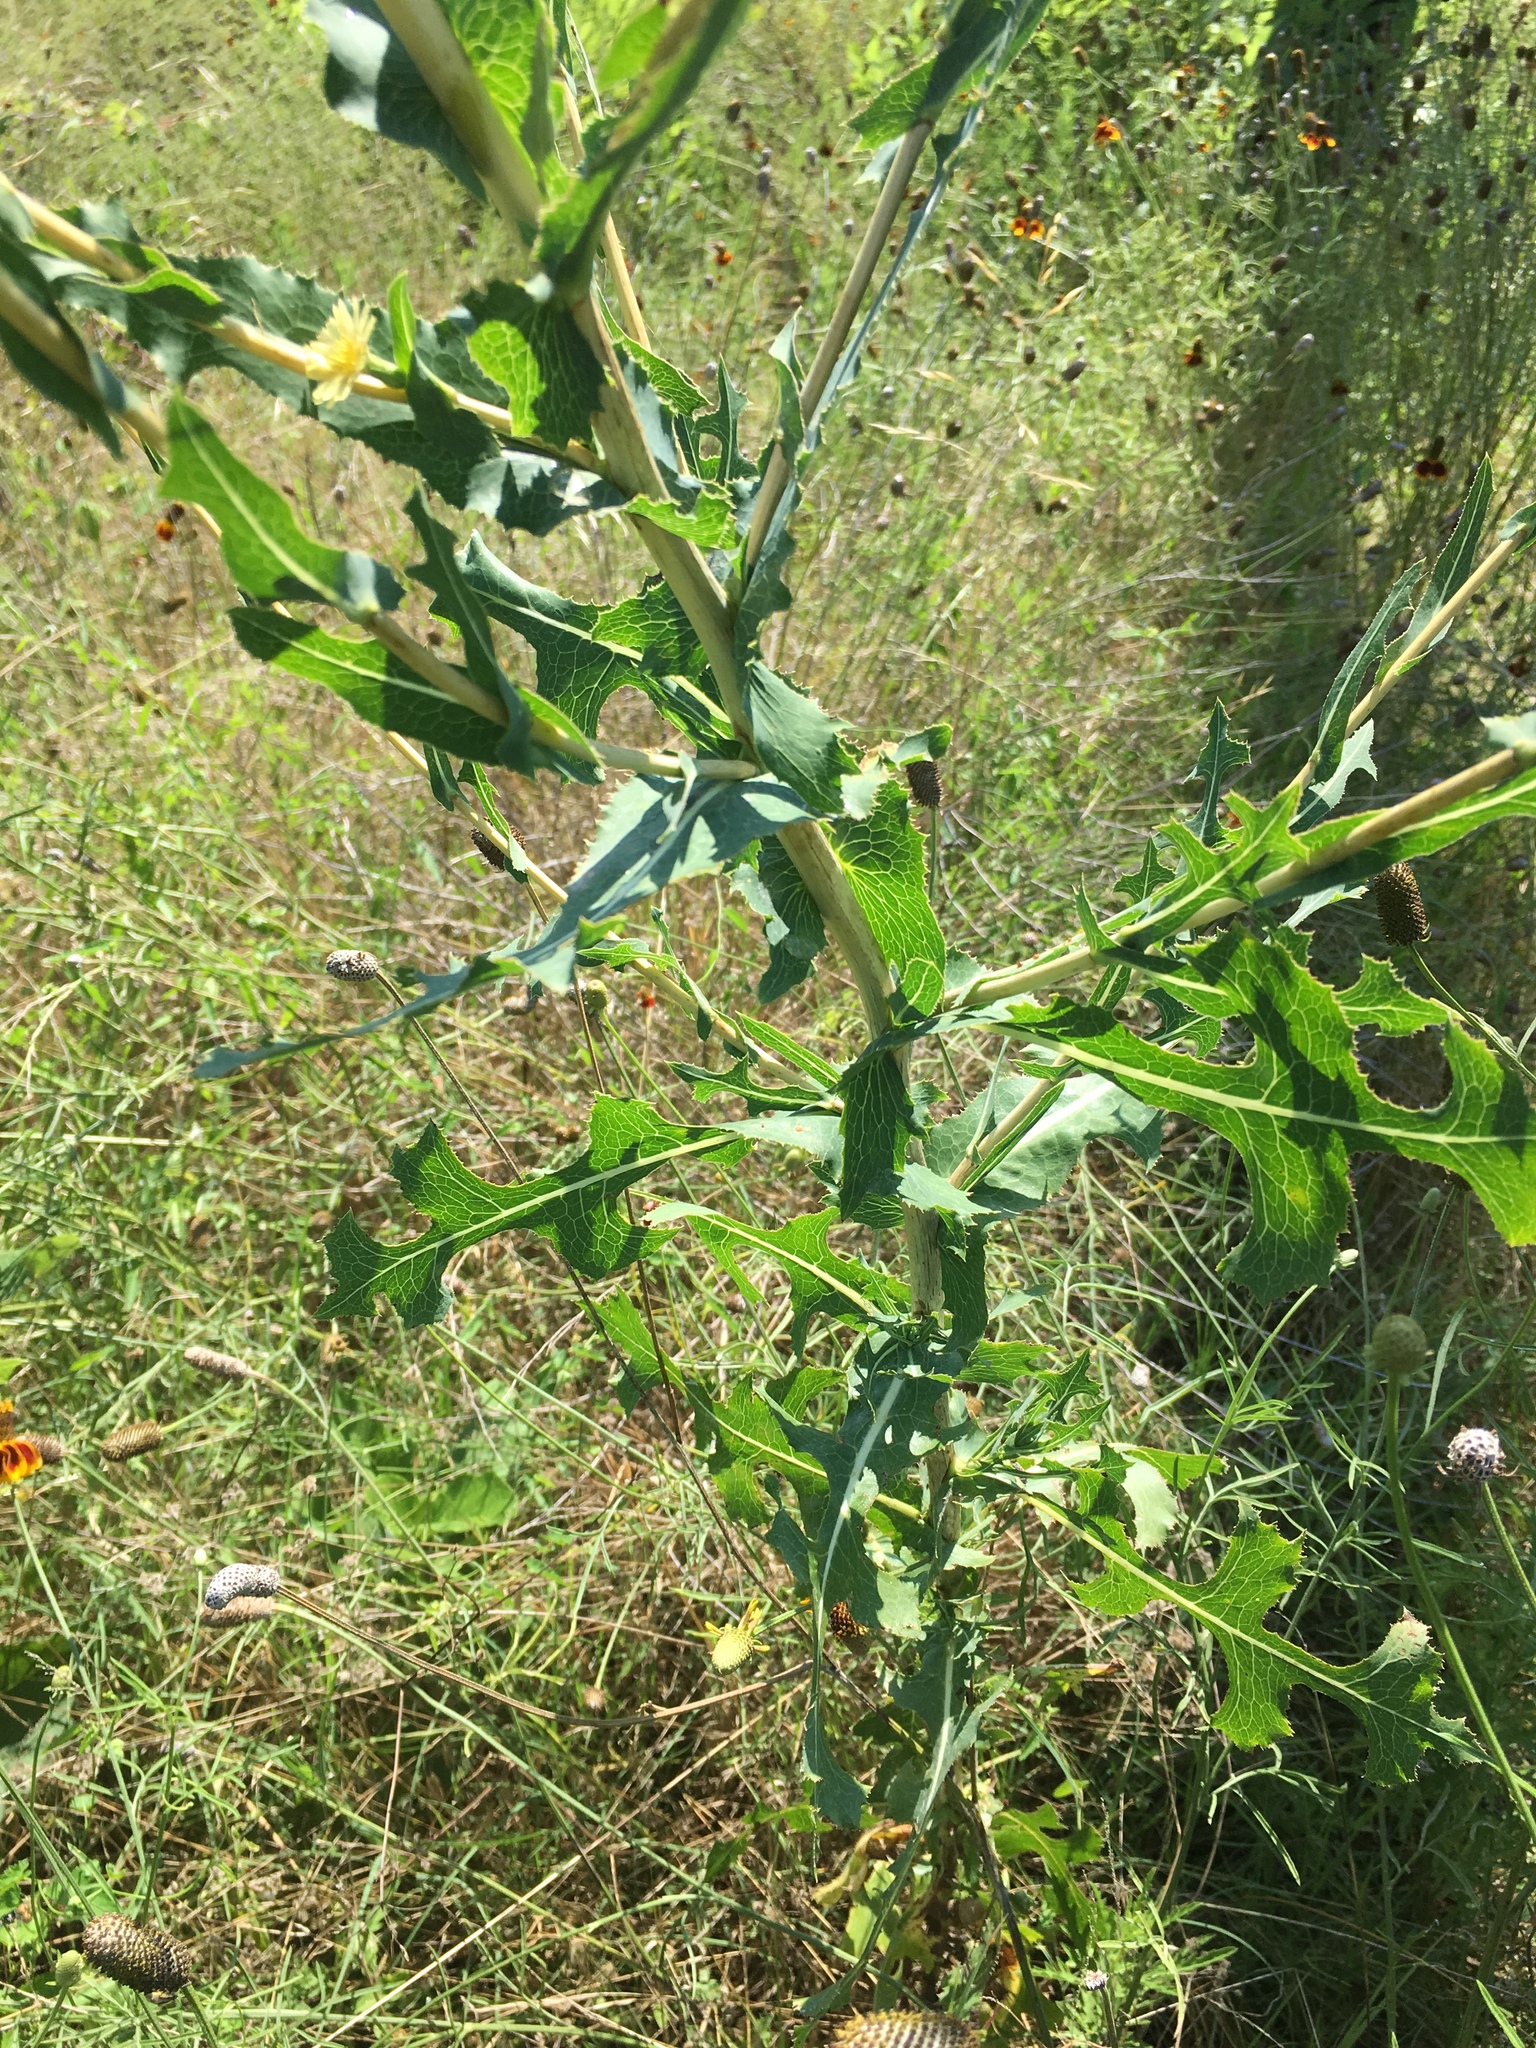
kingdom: Plantae
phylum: Tracheophyta
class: Magnoliopsida
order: Asterales
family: Asteraceae
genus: Lactuca
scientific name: Lactuca serriola
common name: Prickly lettuce
